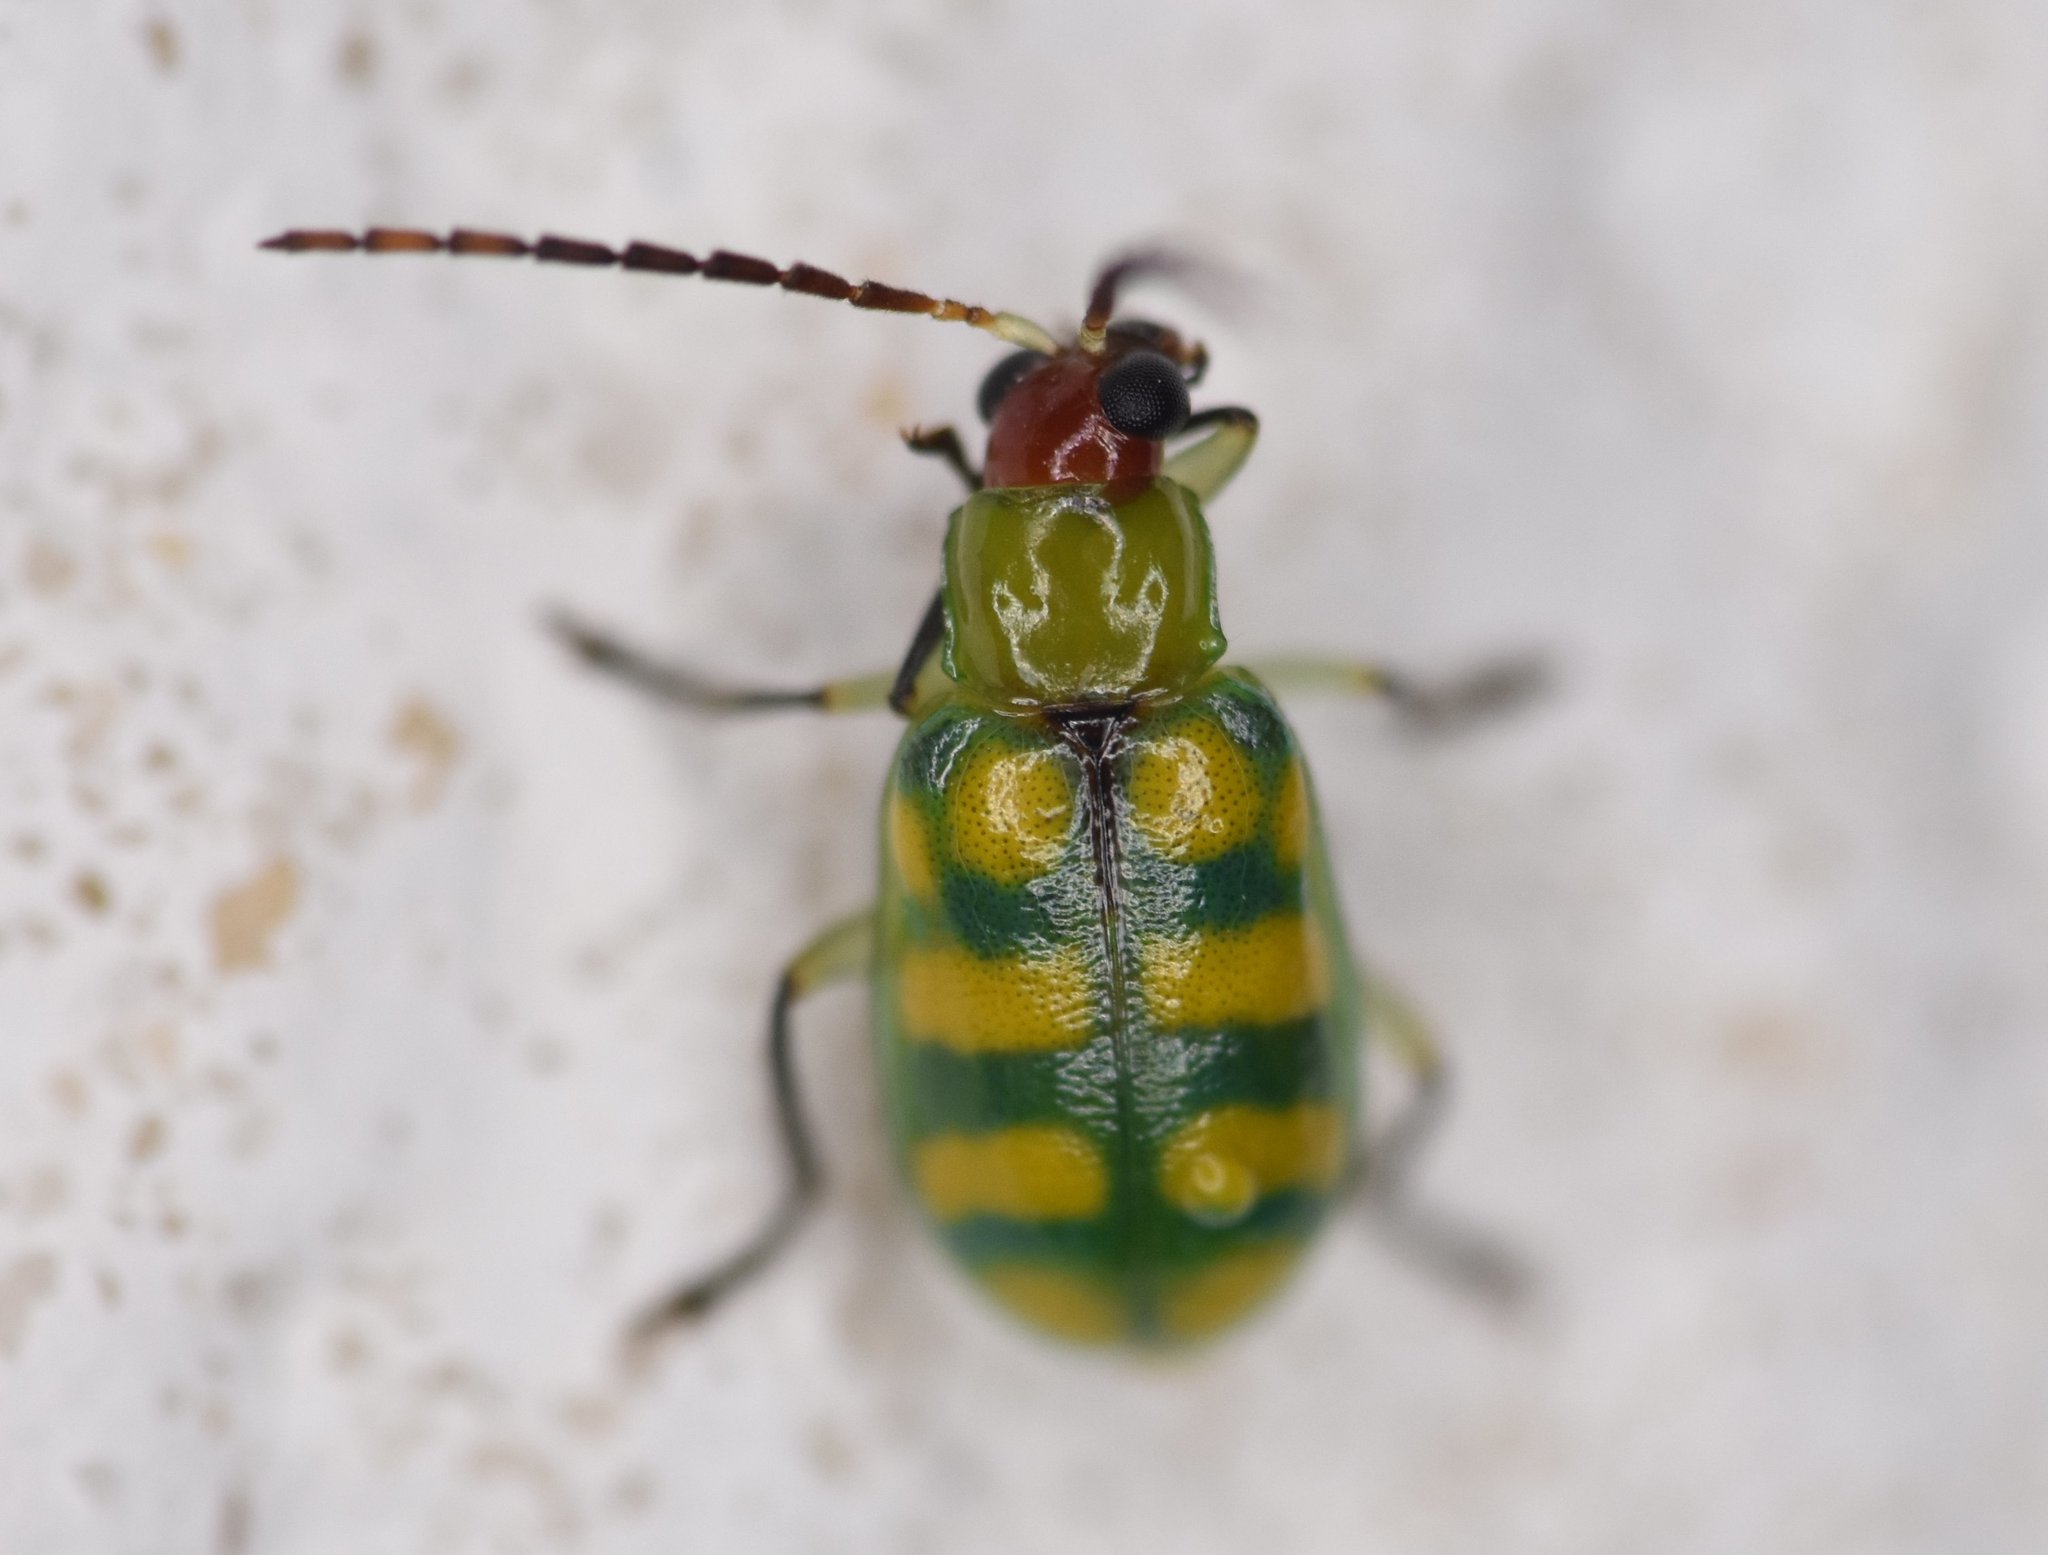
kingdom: Animalia
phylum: Arthropoda
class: Insecta
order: Coleoptera
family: Chrysomelidae
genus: Diabrotica
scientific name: Diabrotica balteata
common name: Leaf beetle
